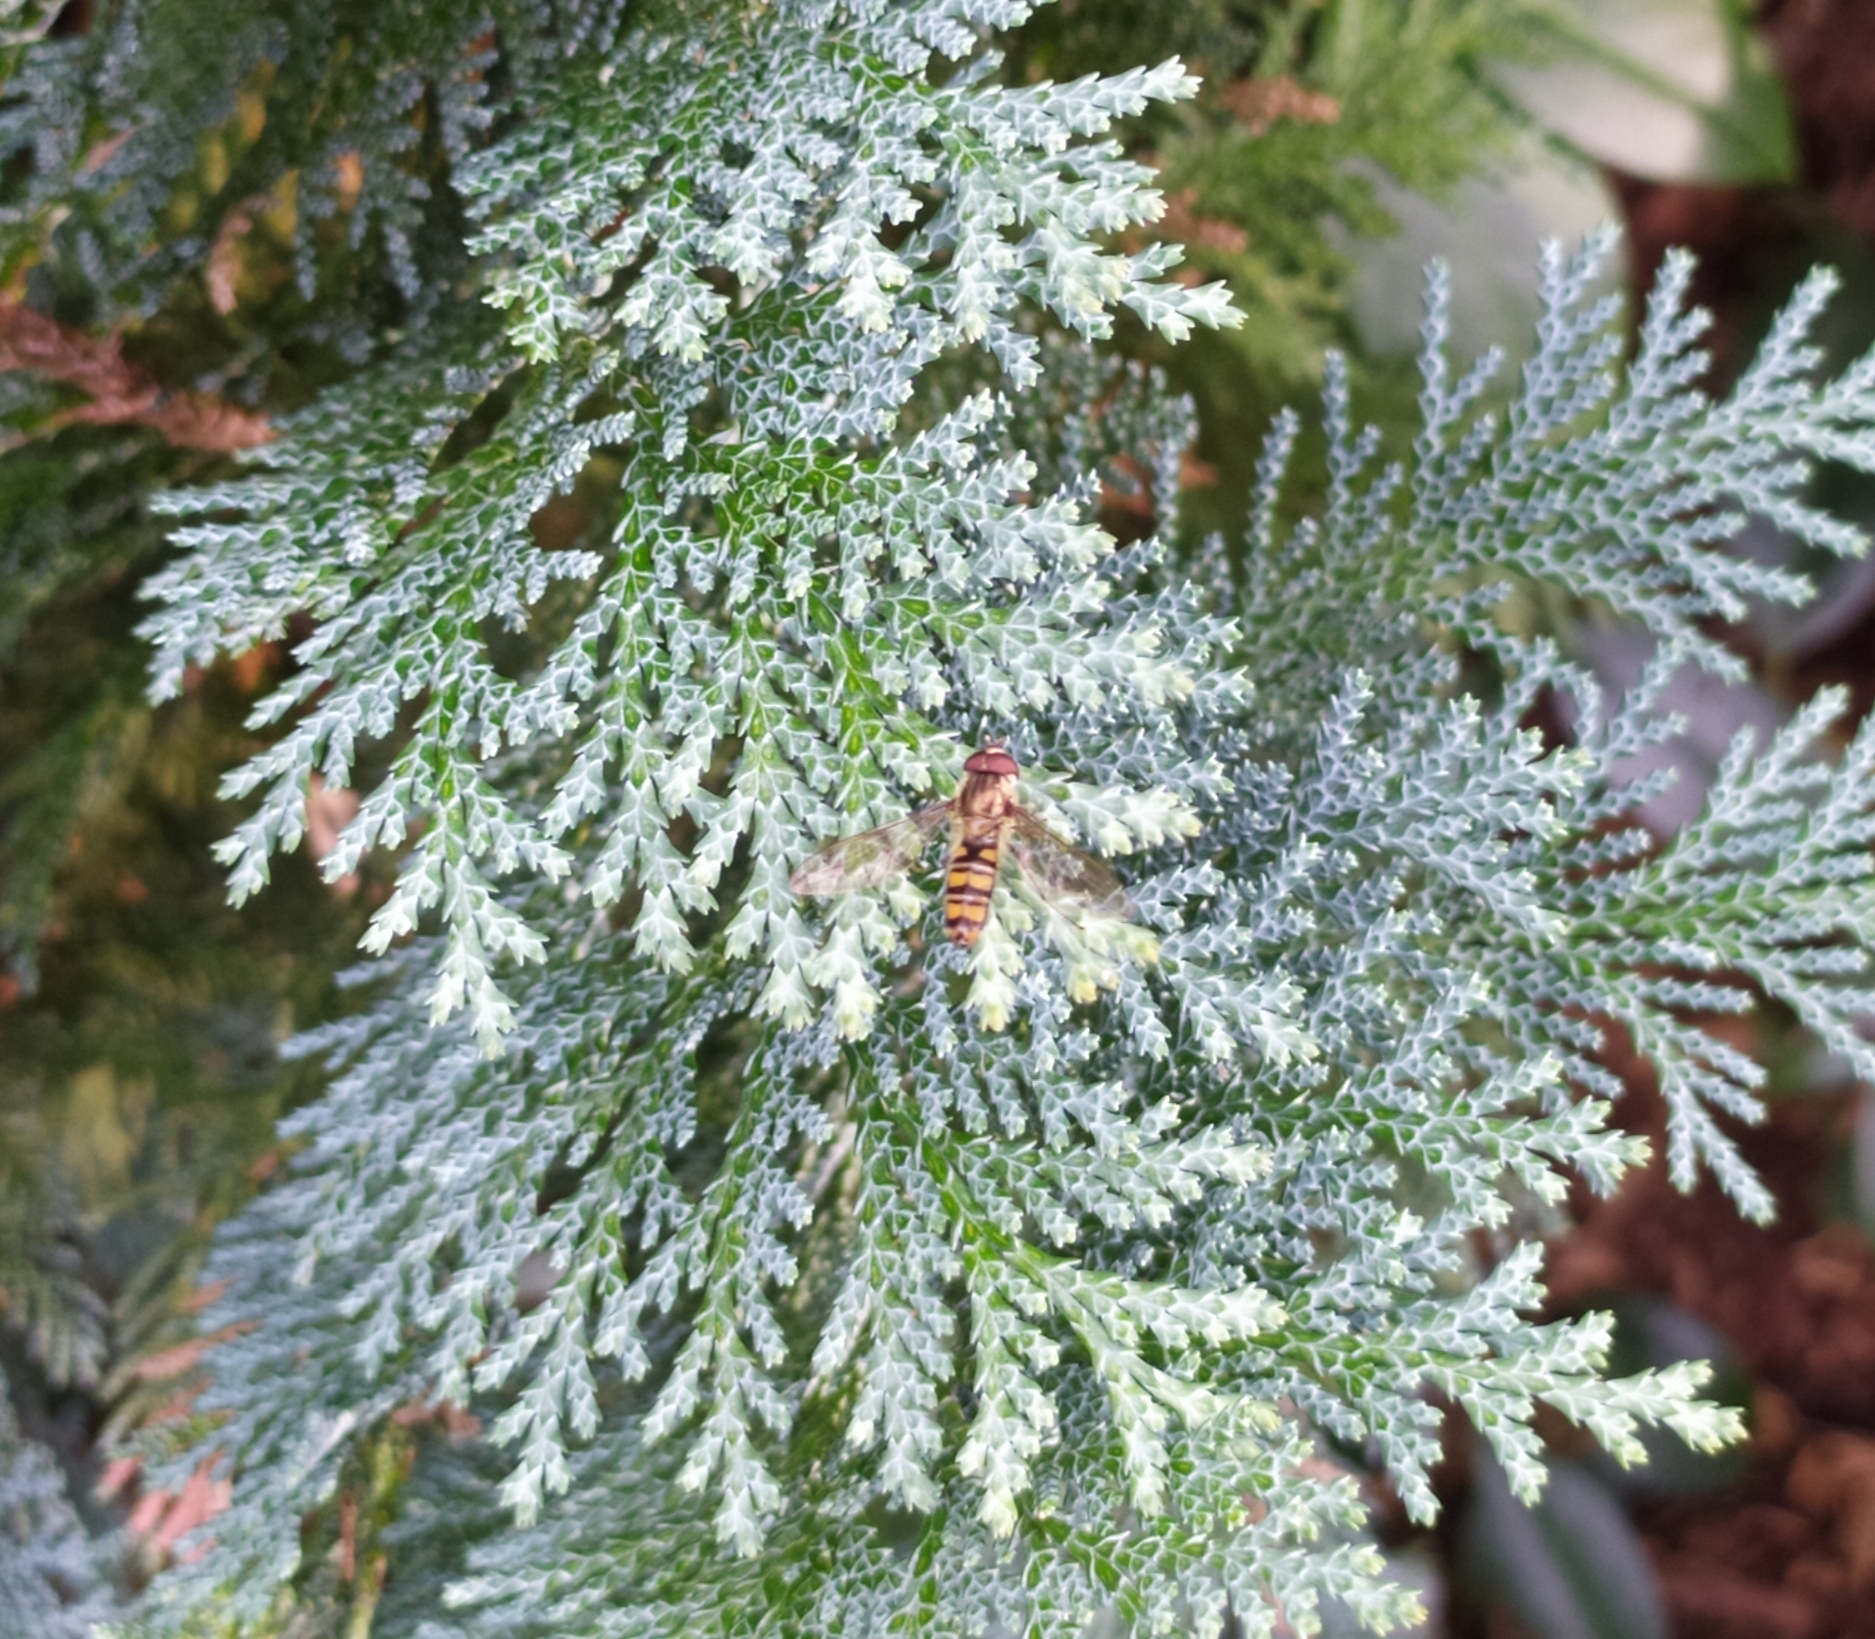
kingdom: Animalia
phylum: Arthropoda
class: Insecta
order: Diptera
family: Syrphidae
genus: Episyrphus
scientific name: Episyrphus balteatus
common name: Marmalade hoverfly
